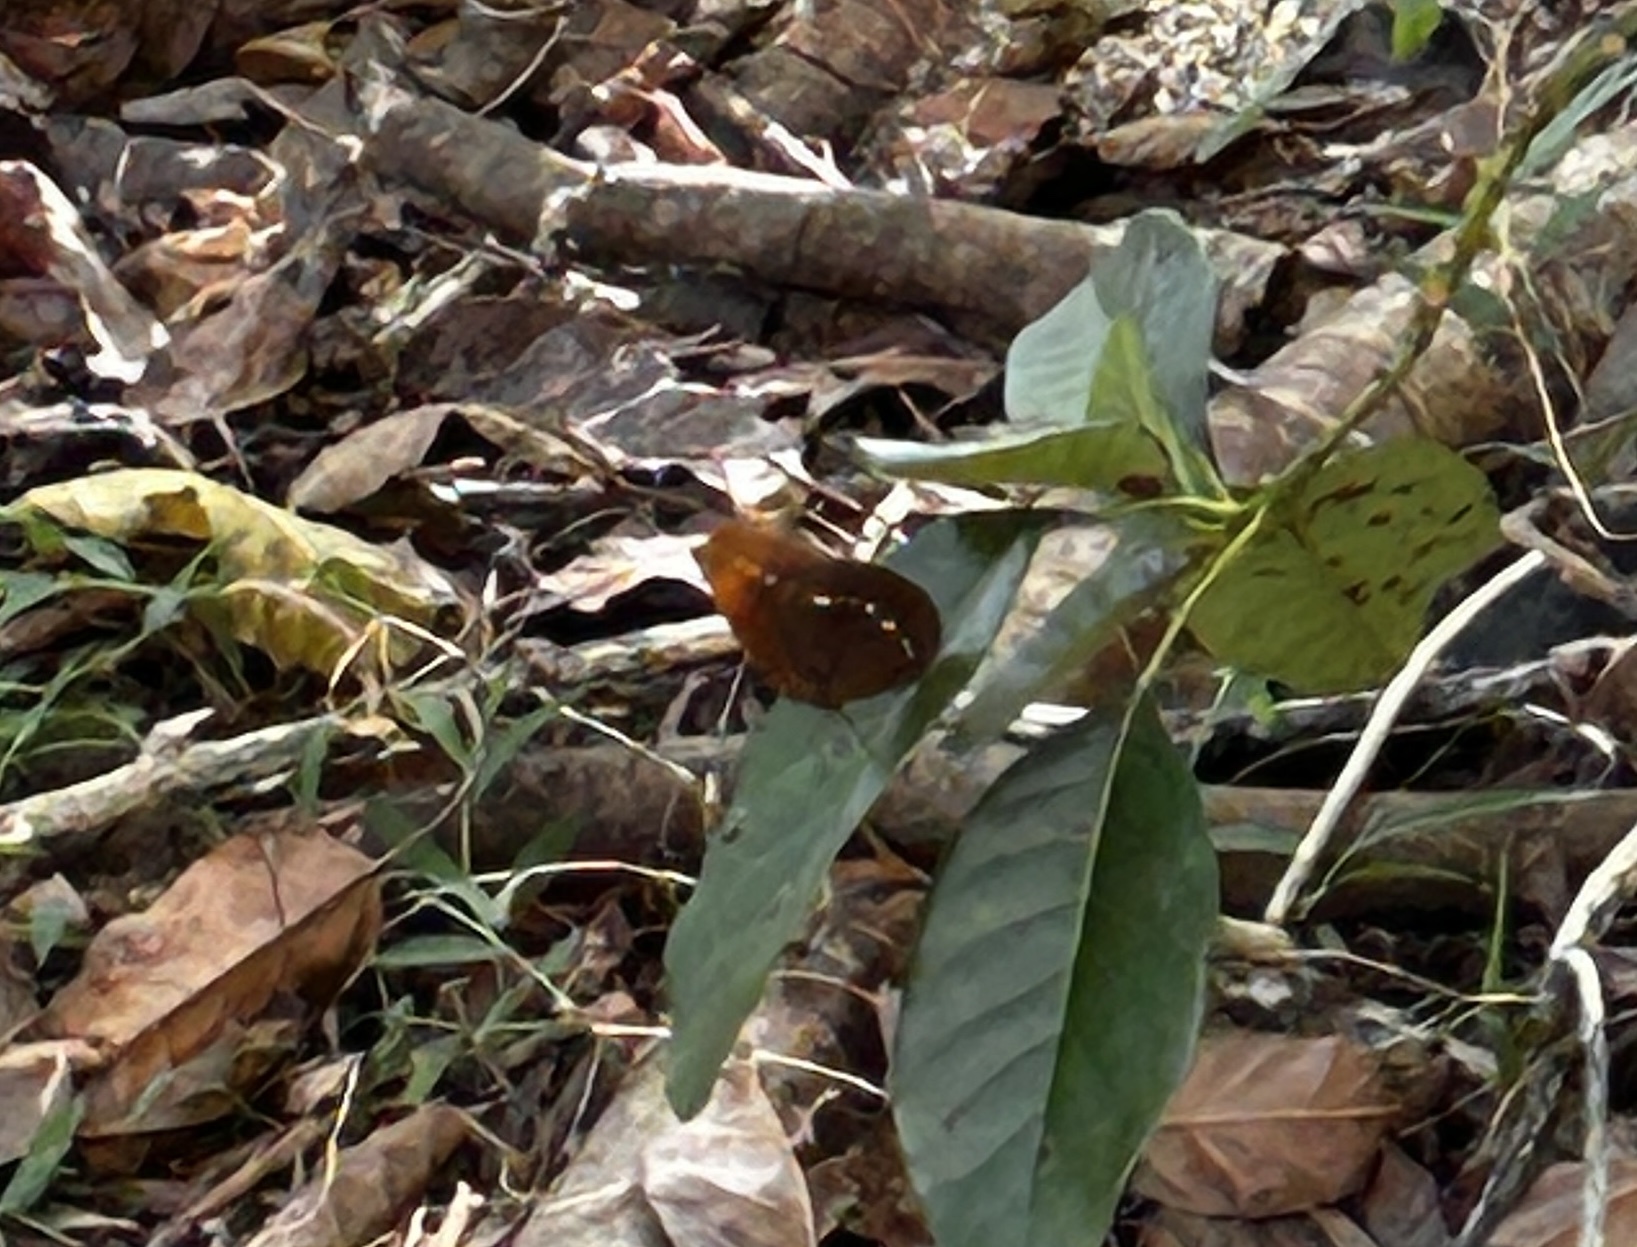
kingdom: Animalia
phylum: Arthropoda
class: Insecta
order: Lepidoptera
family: Nymphalidae
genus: Faunis
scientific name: Faunis eumeus
